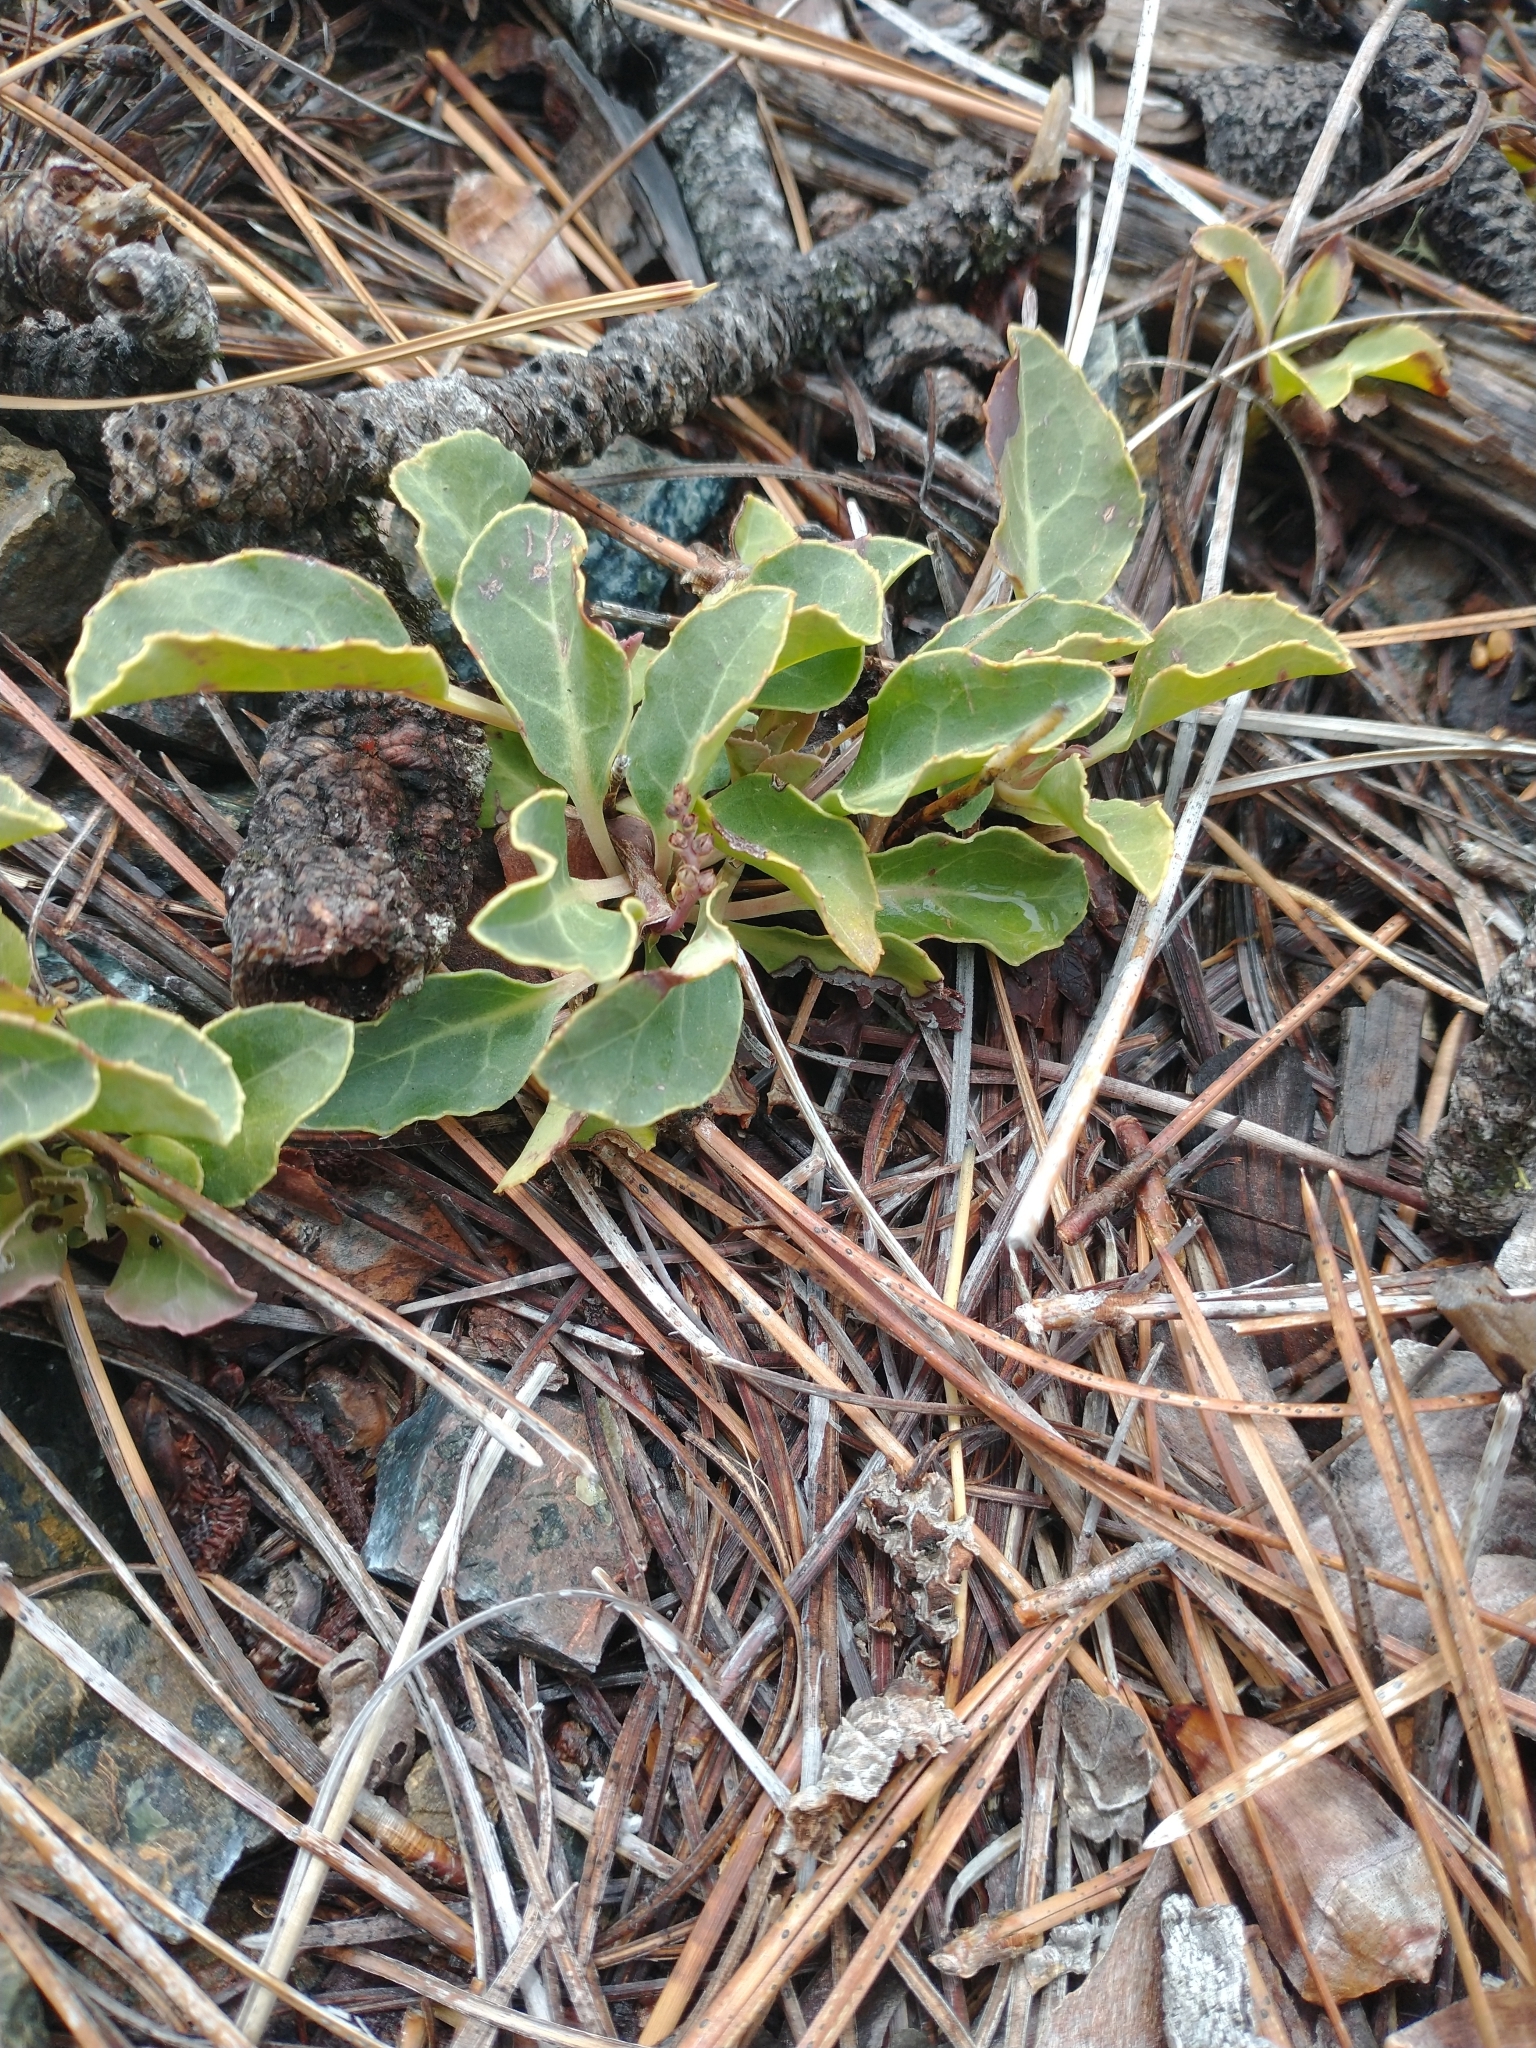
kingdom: Plantae
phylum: Tracheophyta
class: Magnoliopsida
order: Ericales
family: Ericaceae
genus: Pyrola
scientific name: Pyrola dentata
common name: Tooth-leaved wintergreen
